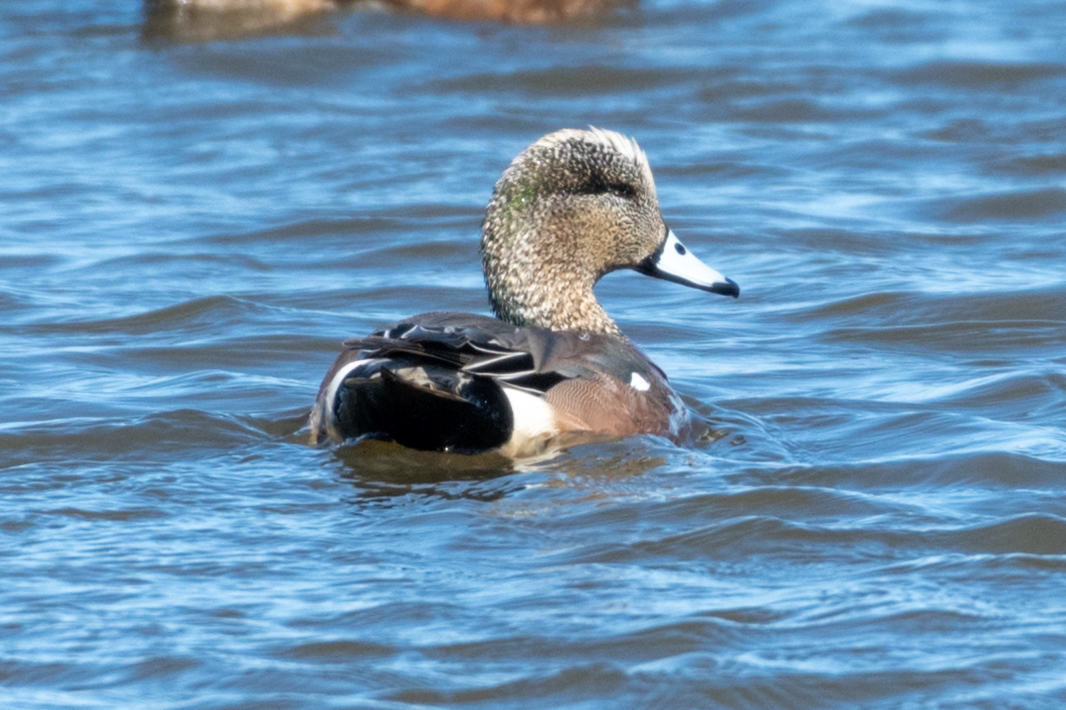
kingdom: Animalia
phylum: Chordata
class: Aves
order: Anseriformes
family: Anatidae
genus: Mareca
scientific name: Mareca americana
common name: American wigeon
